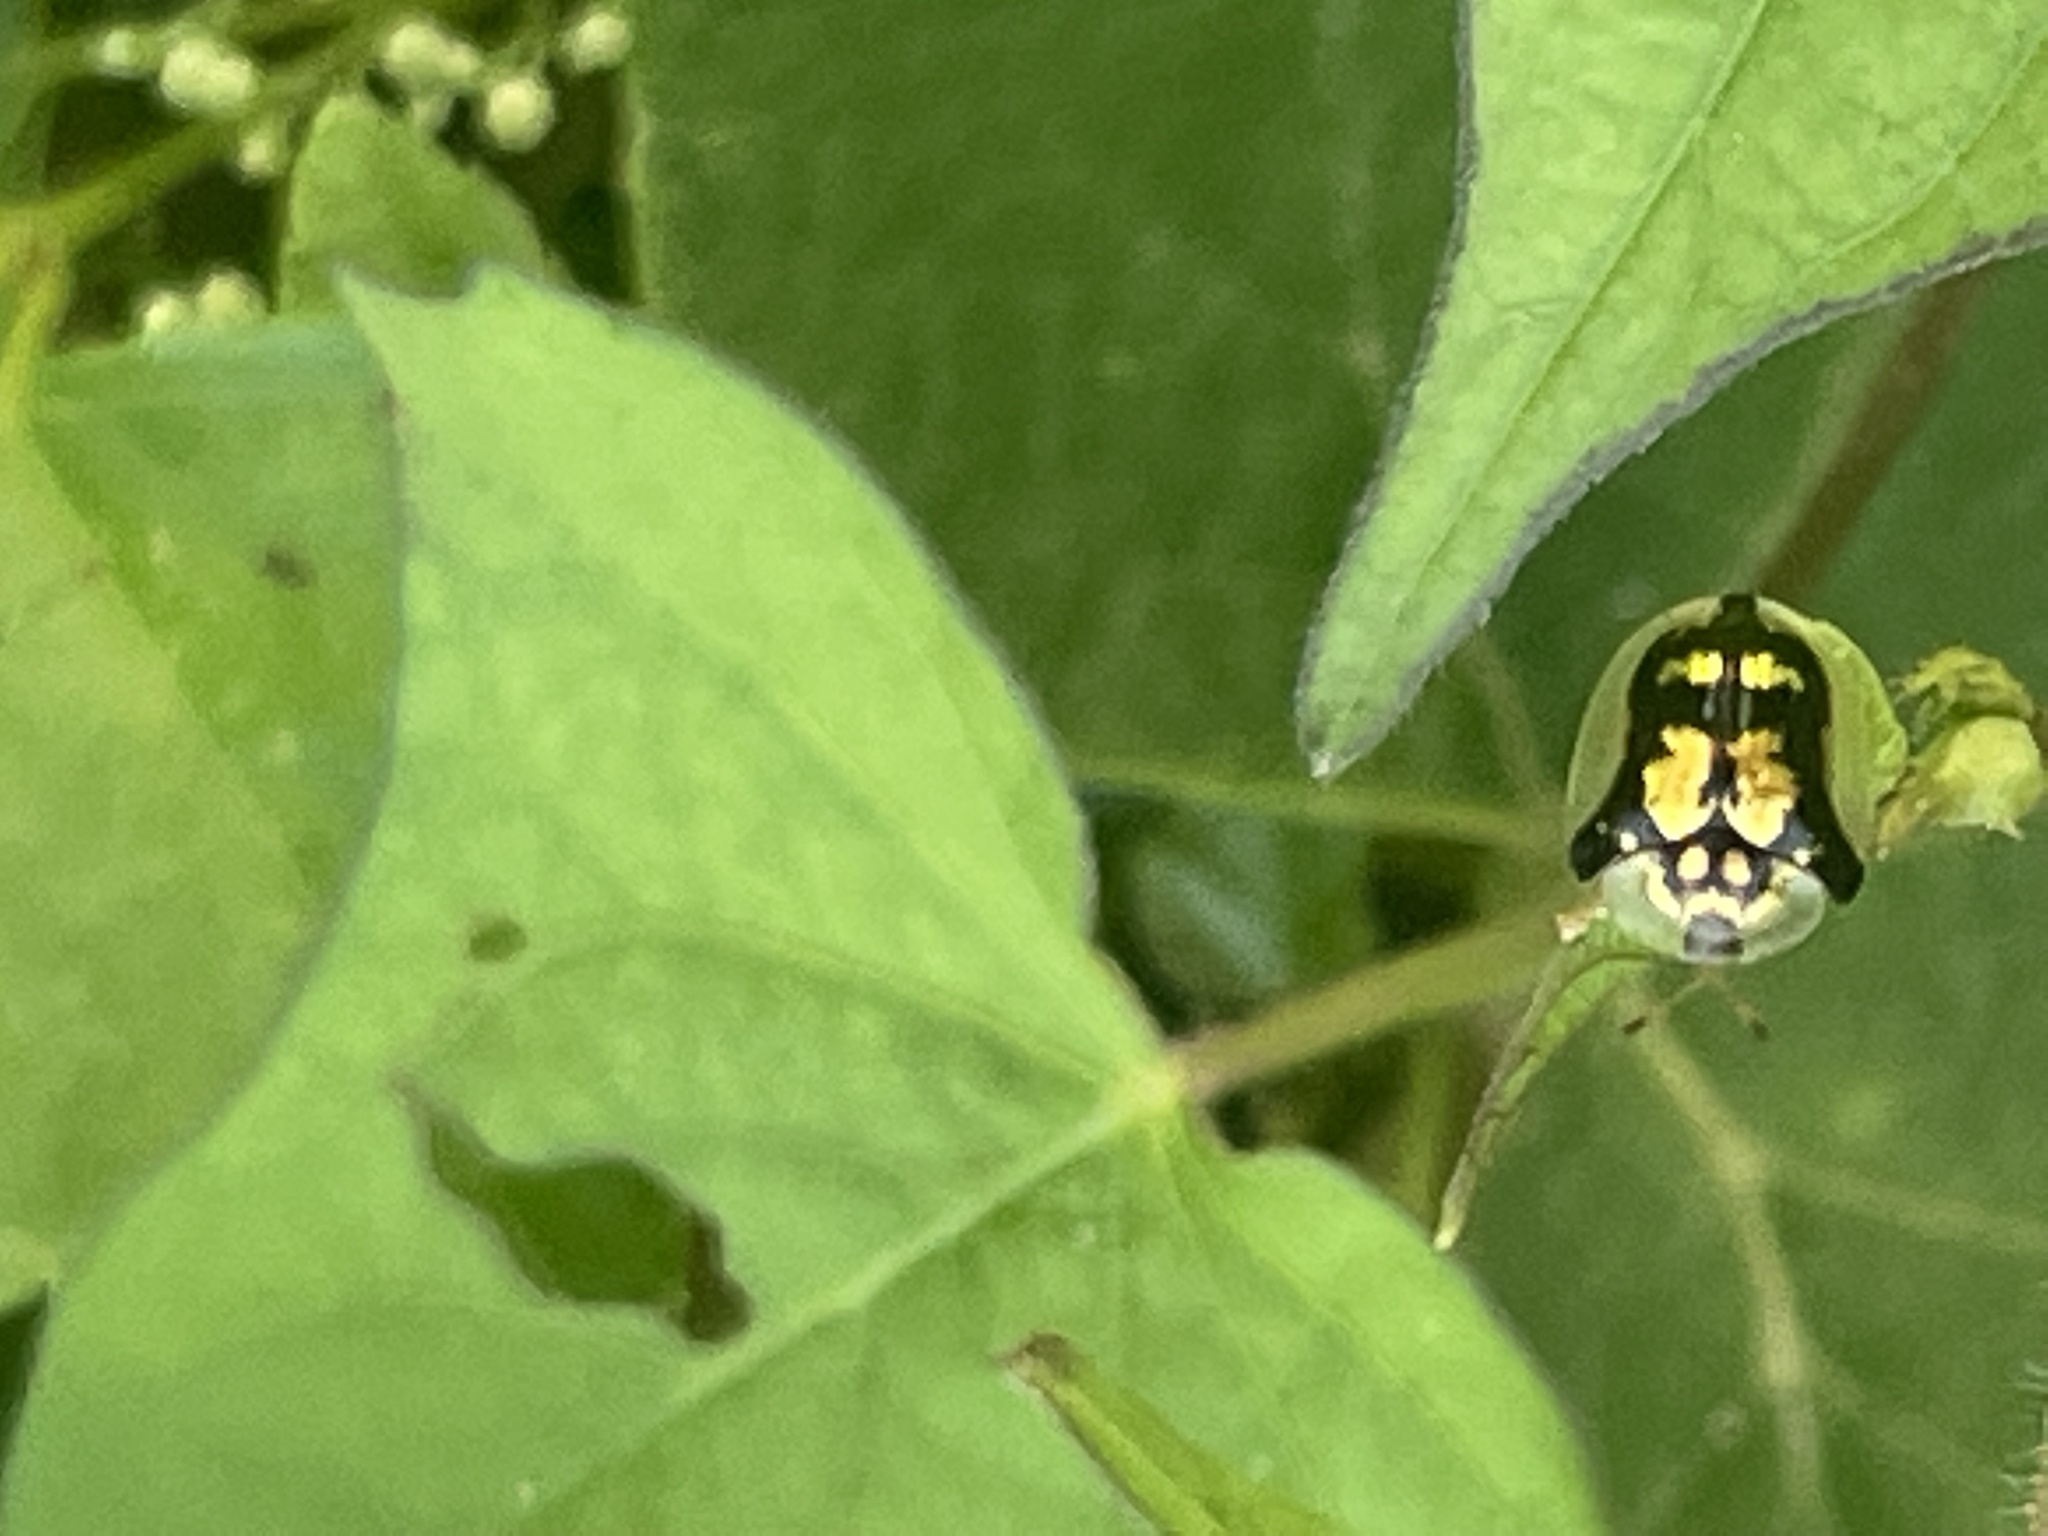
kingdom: Animalia
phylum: Arthropoda
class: Insecta
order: Coleoptera
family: Chrysomelidae
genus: Deloyala
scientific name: Deloyala guttata
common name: Mottled tortoise beetle
